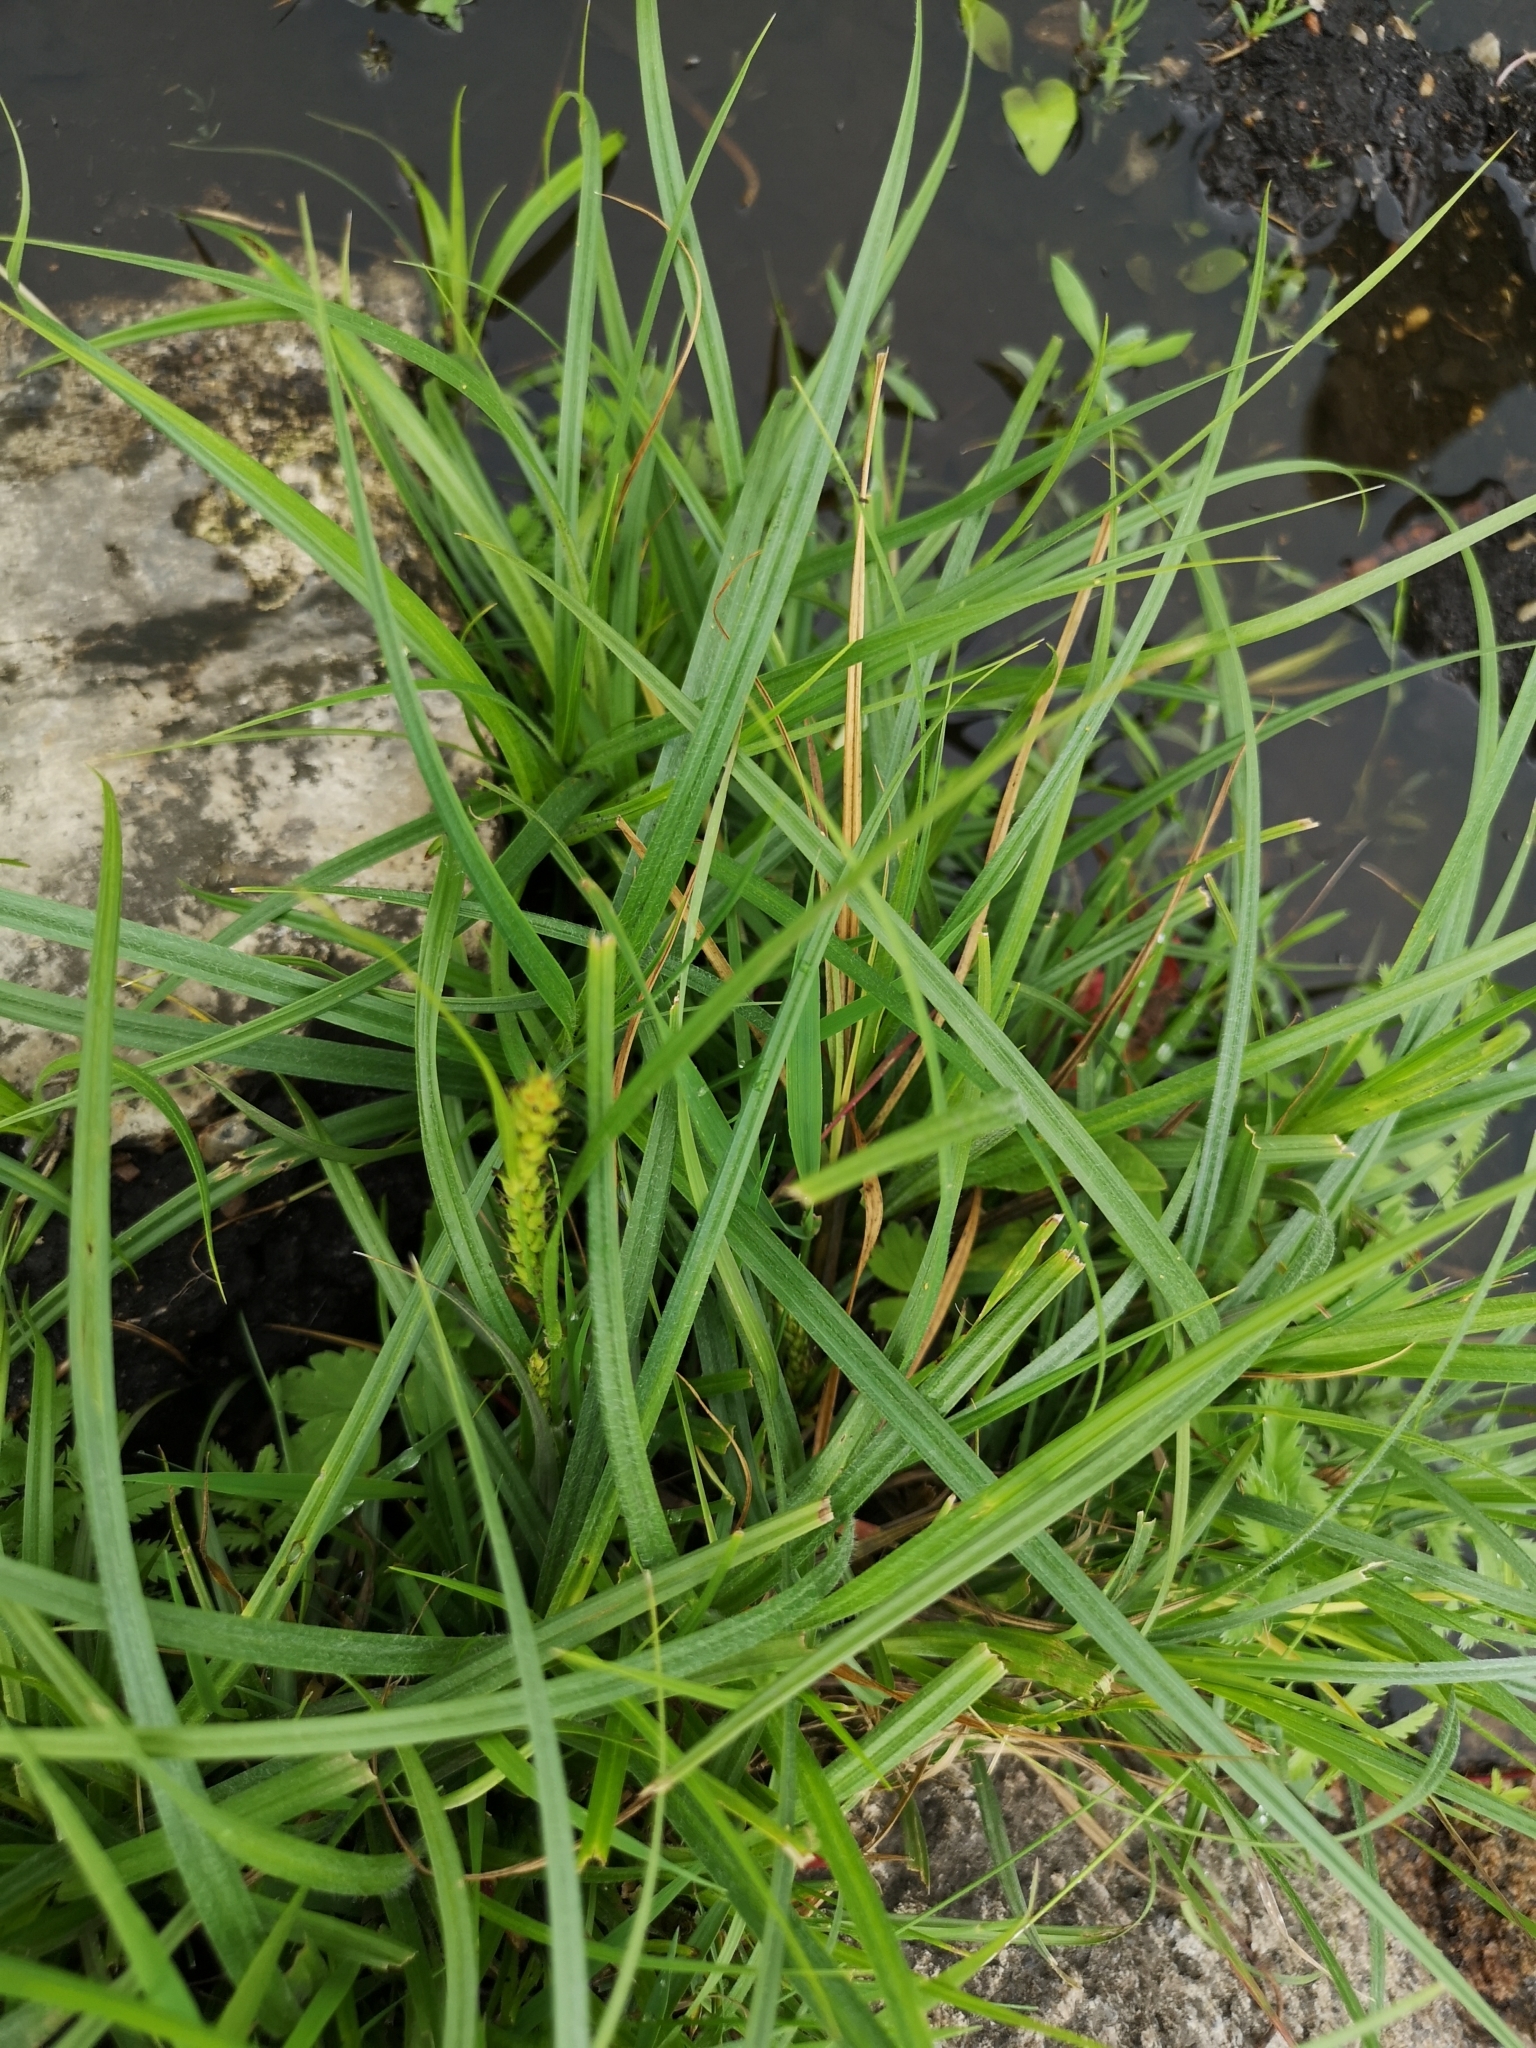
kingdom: Plantae
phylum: Tracheophyta
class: Liliopsida
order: Poales
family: Cyperaceae
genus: Carex
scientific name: Carex hirta
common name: Hairy sedge
